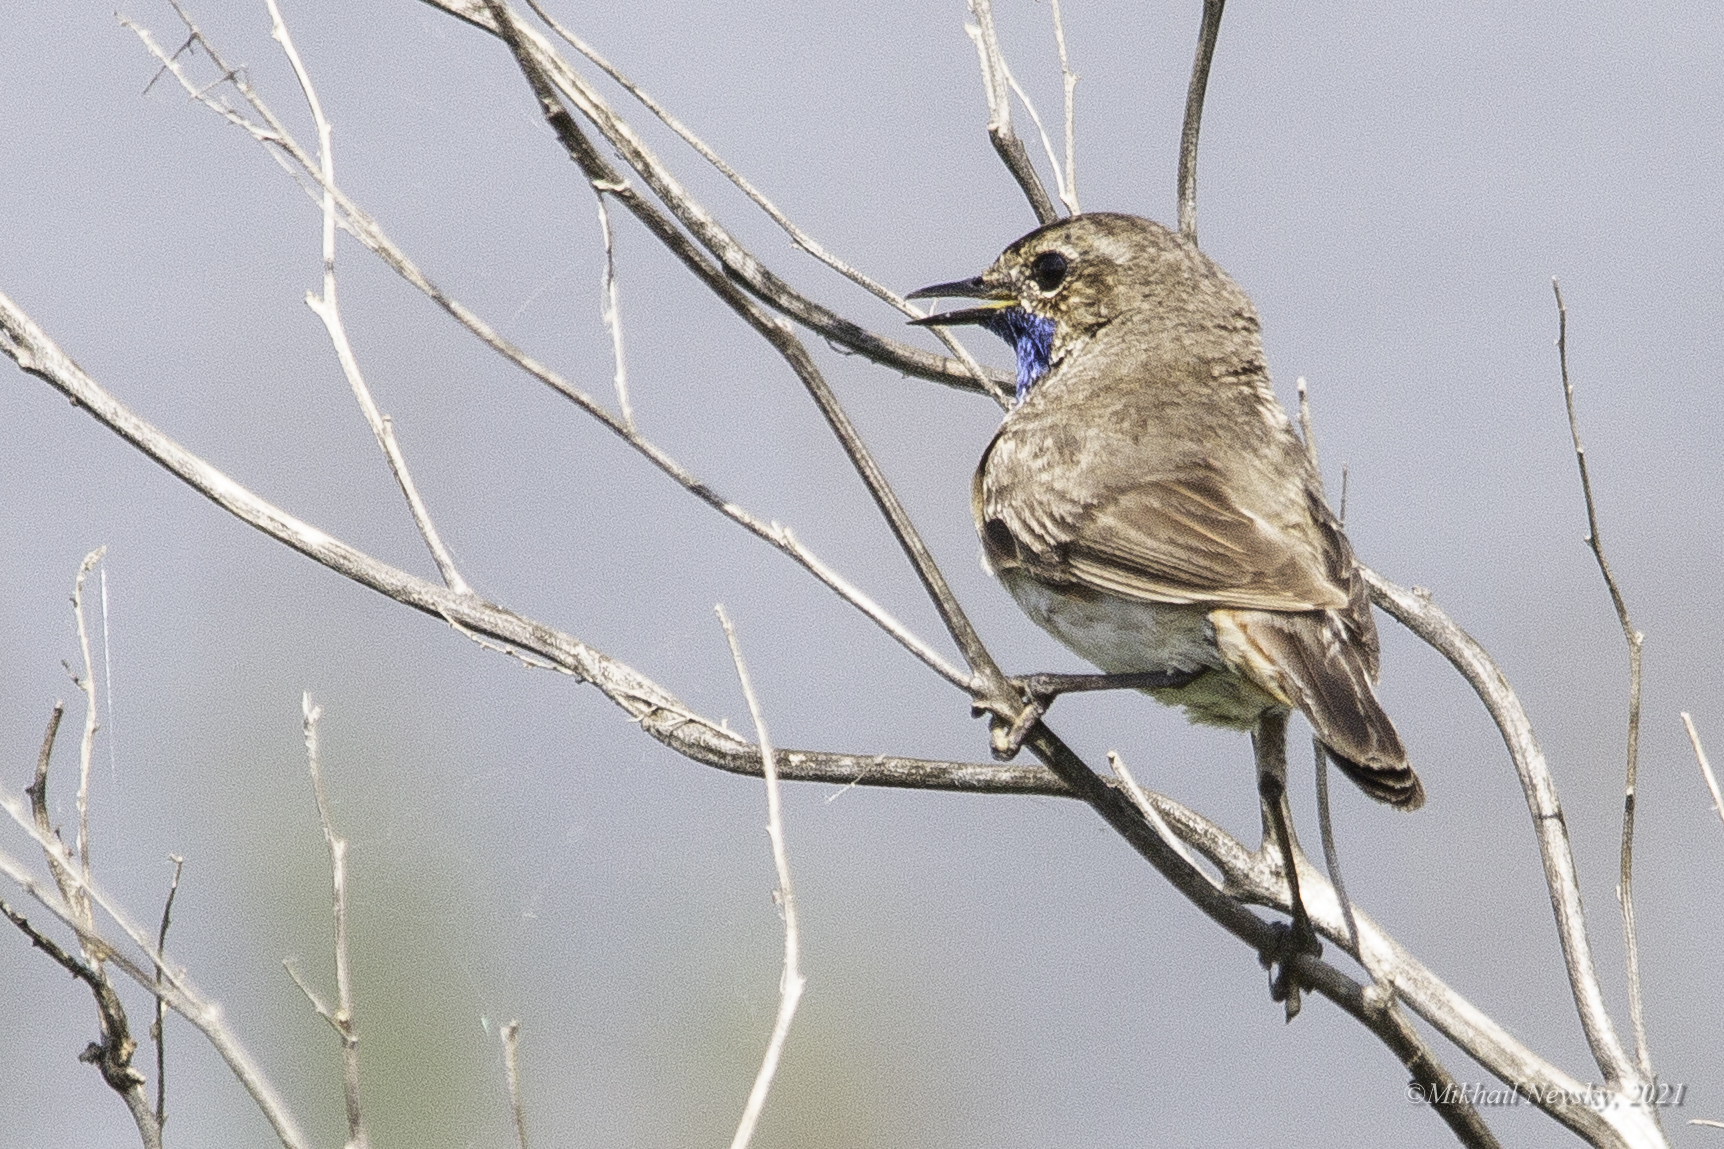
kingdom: Animalia
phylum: Chordata
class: Aves
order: Passeriformes
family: Muscicapidae
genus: Luscinia
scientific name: Luscinia svecica
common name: Bluethroat
